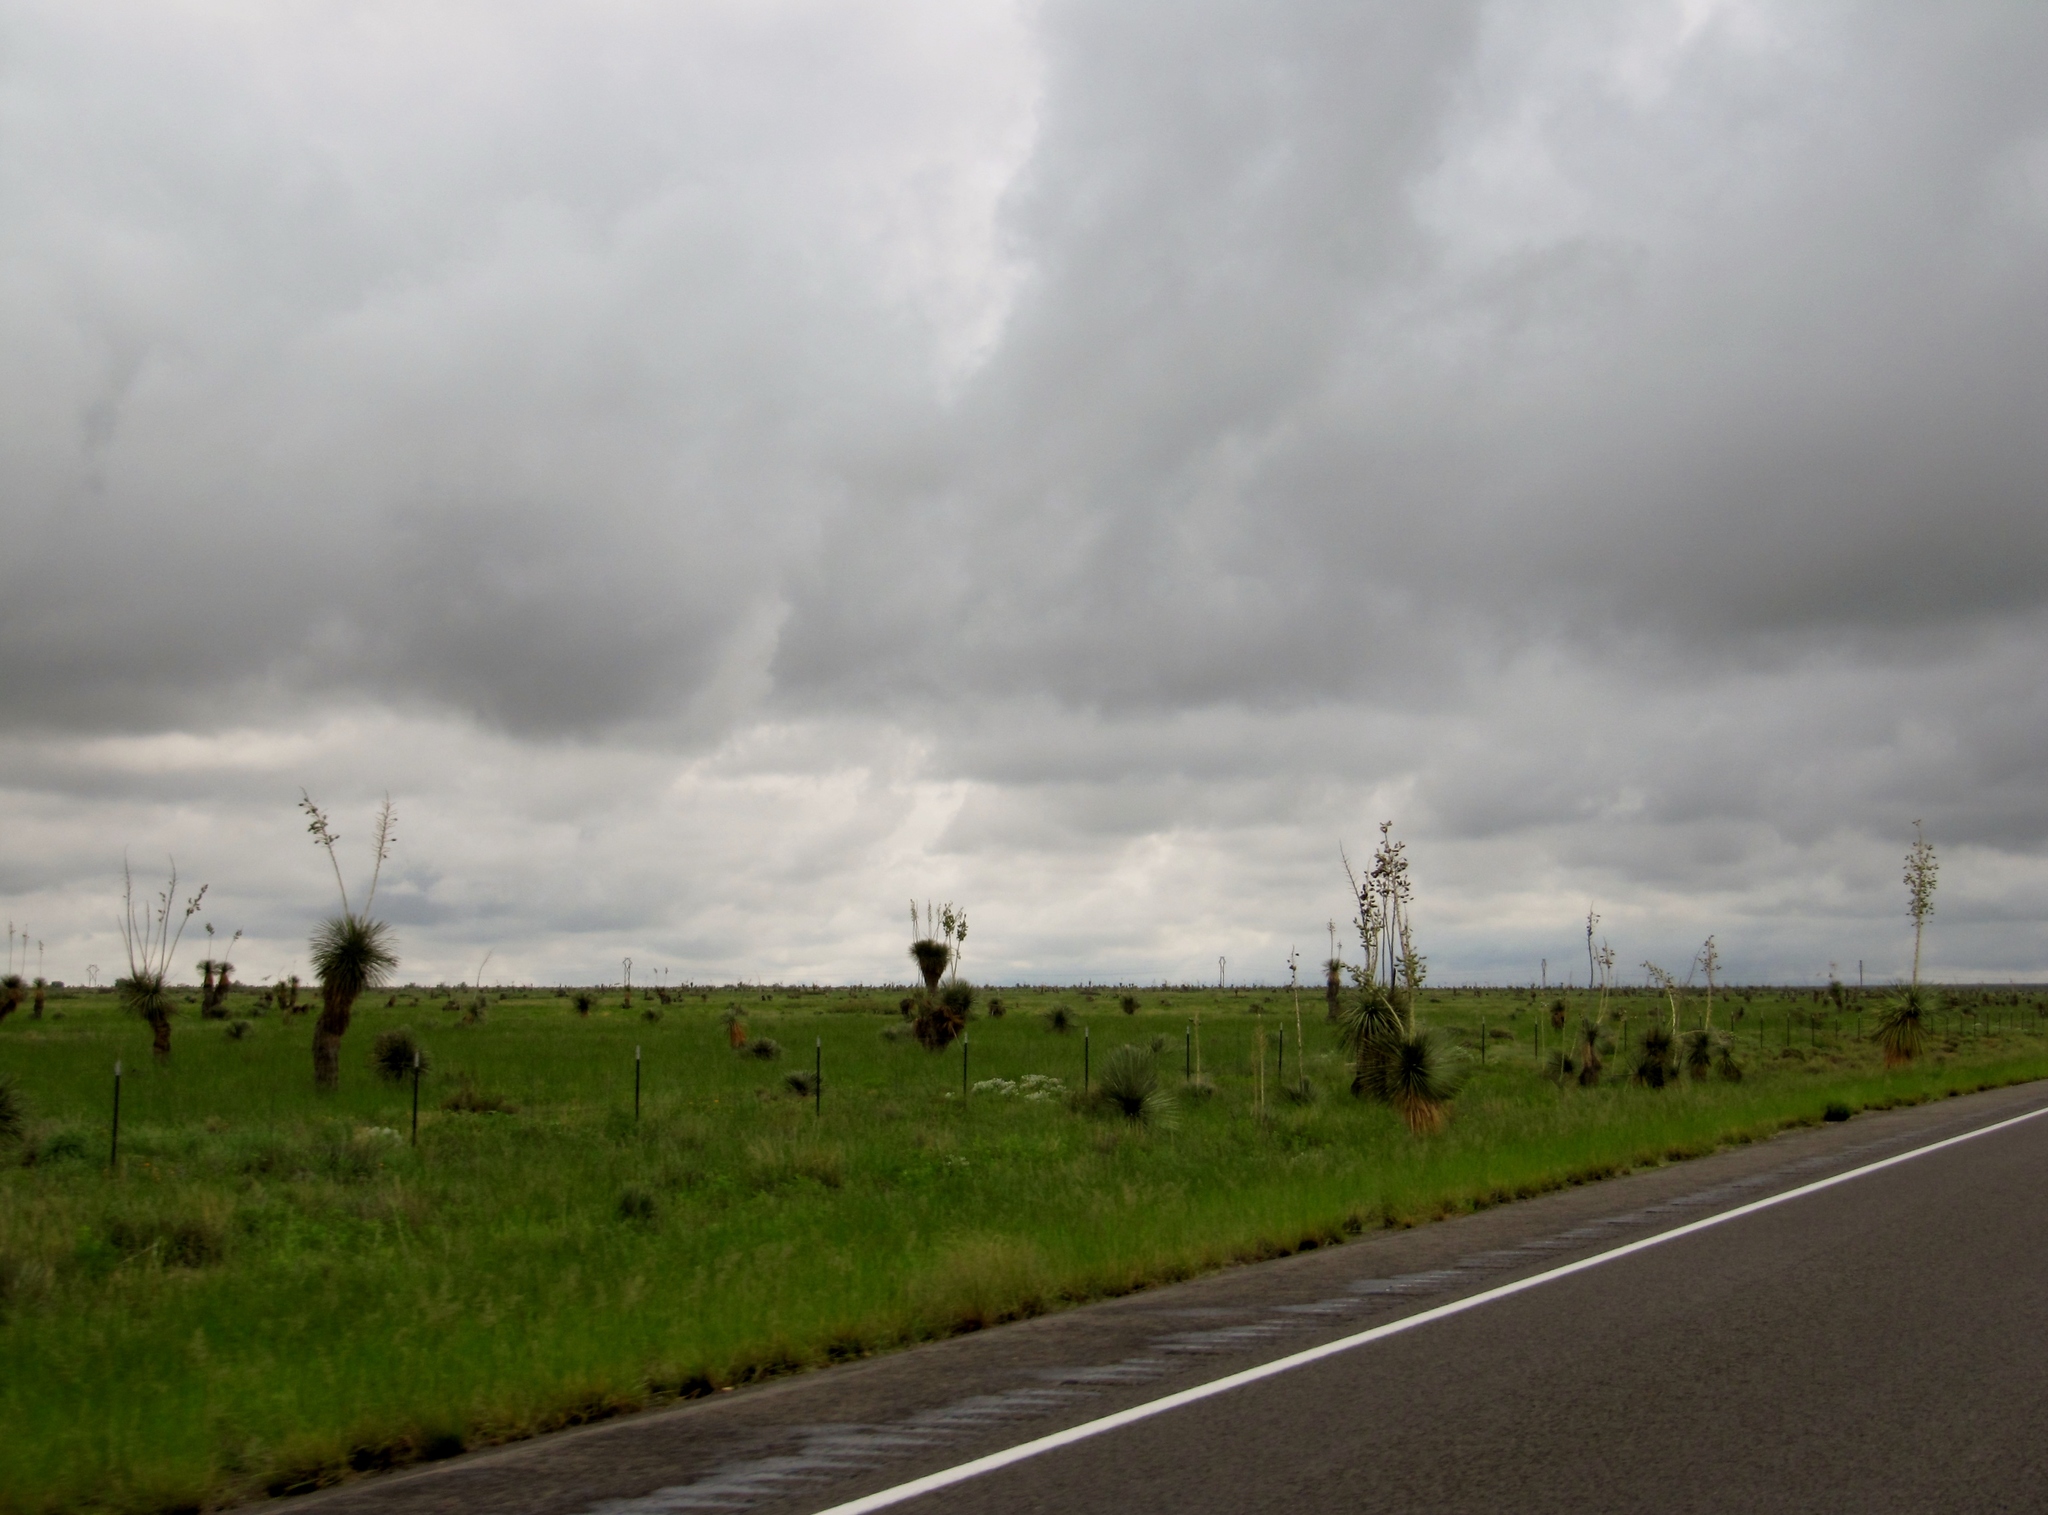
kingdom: Plantae
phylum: Tracheophyta
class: Liliopsida
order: Asparagales
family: Asparagaceae
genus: Yucca
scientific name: Yucca elata
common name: Palmella
